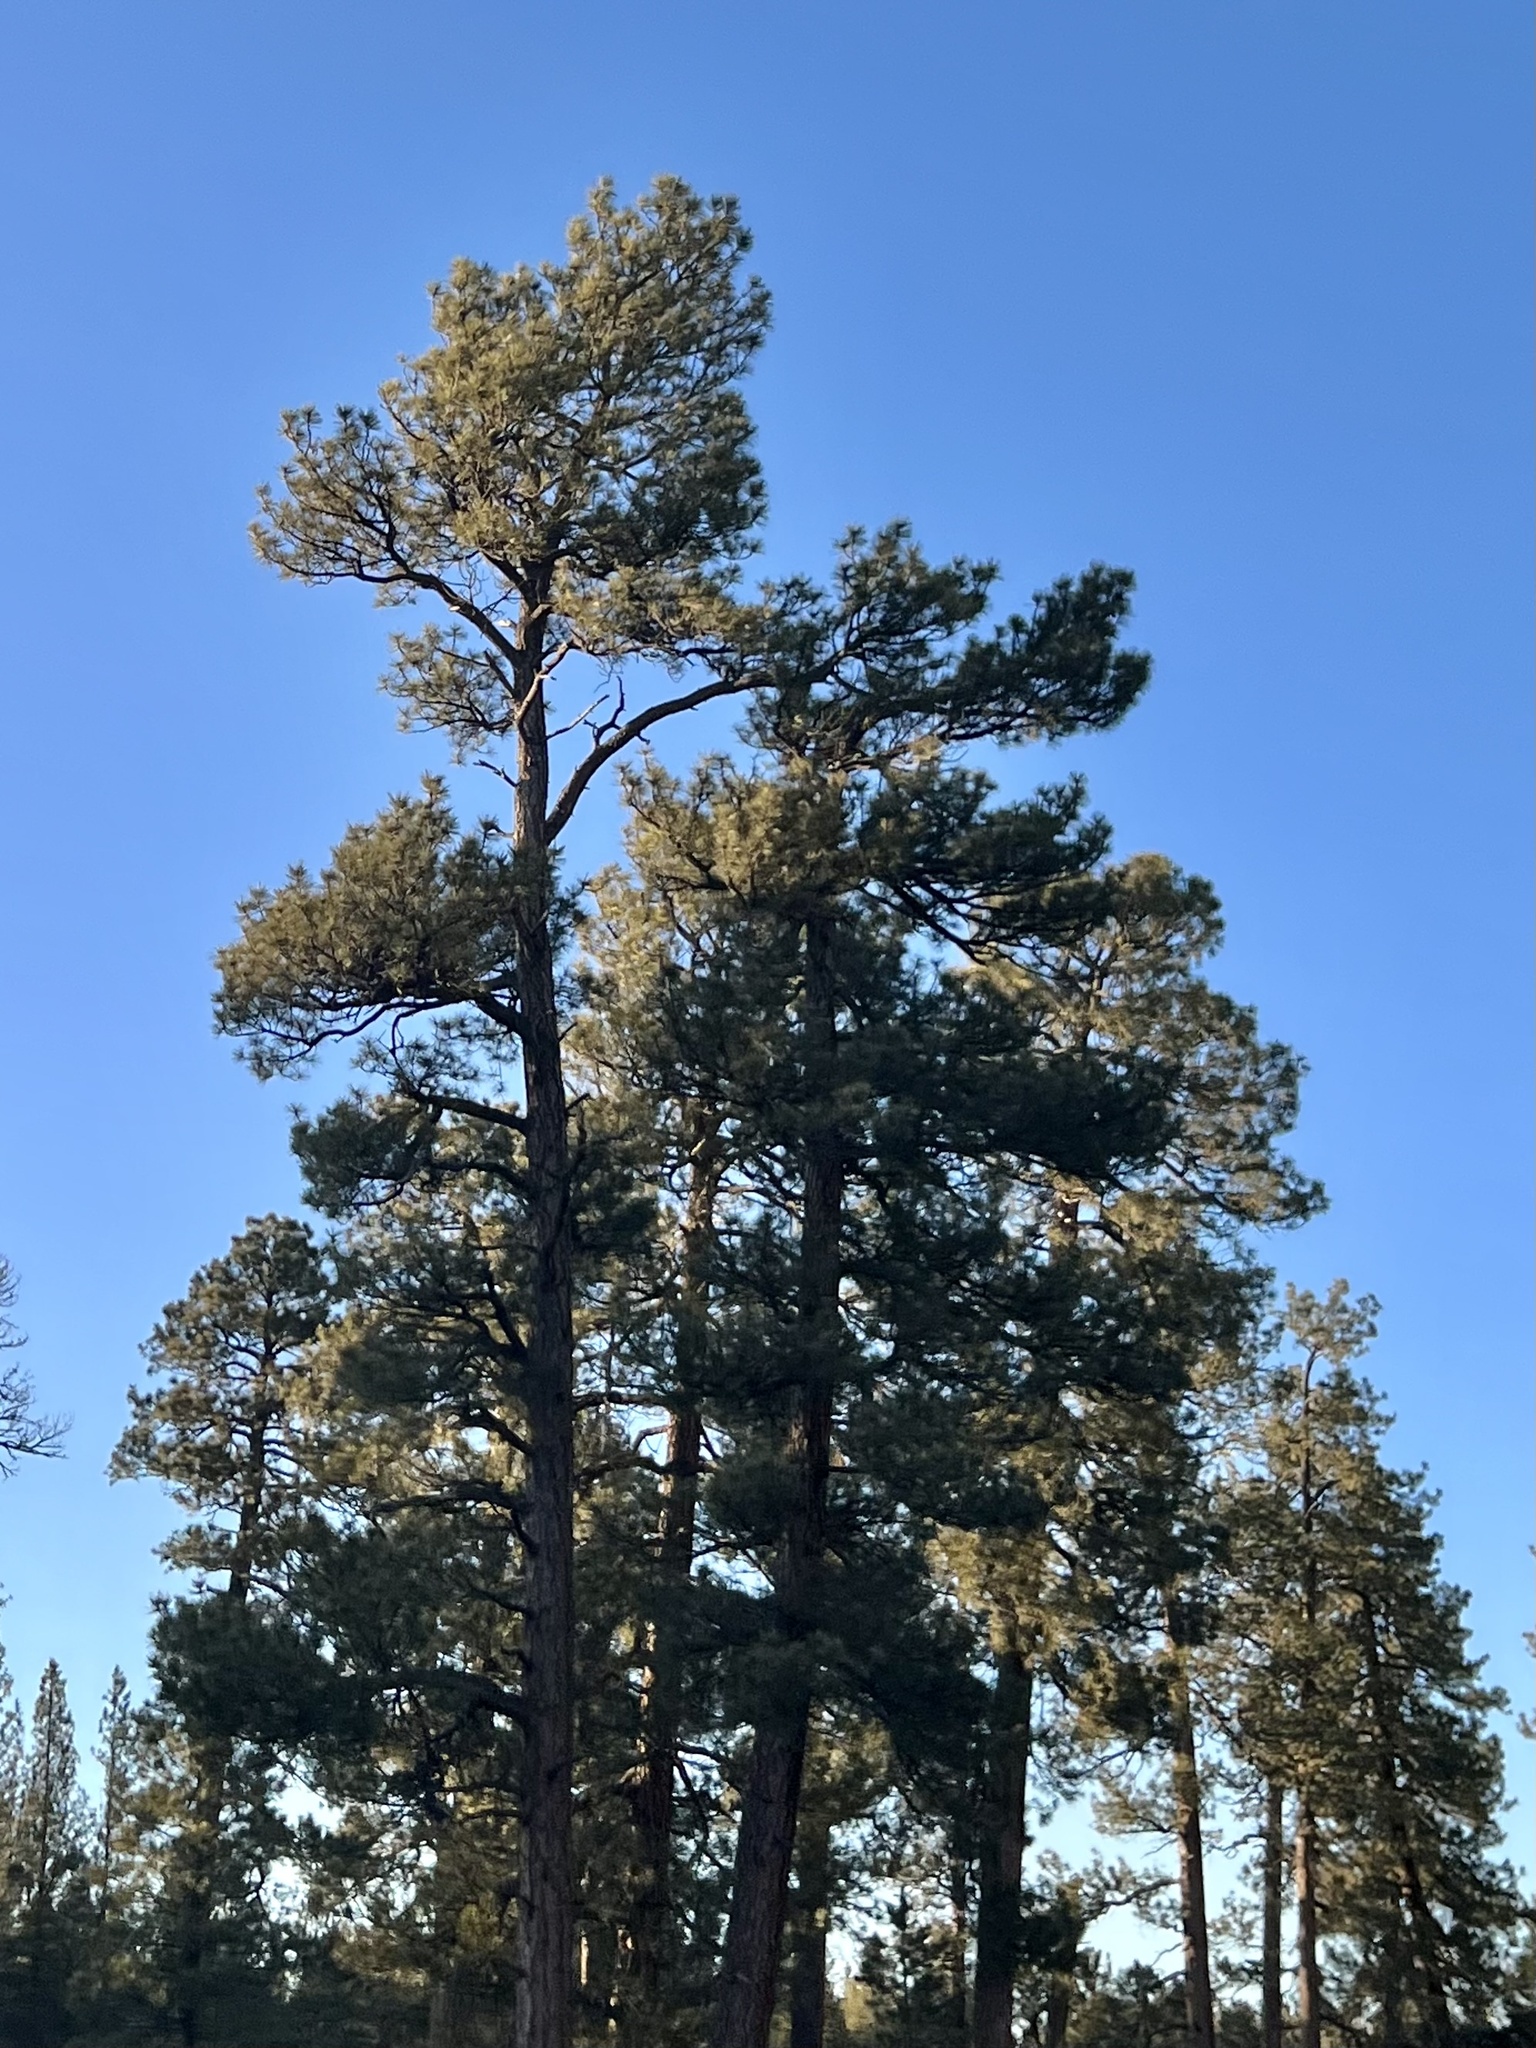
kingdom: Plantae
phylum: Tracheophyta
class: Pinopsida
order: Pinales
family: Pinaceae
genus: Pinus
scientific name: Pinus ponderosa
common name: Western yellow-pine
